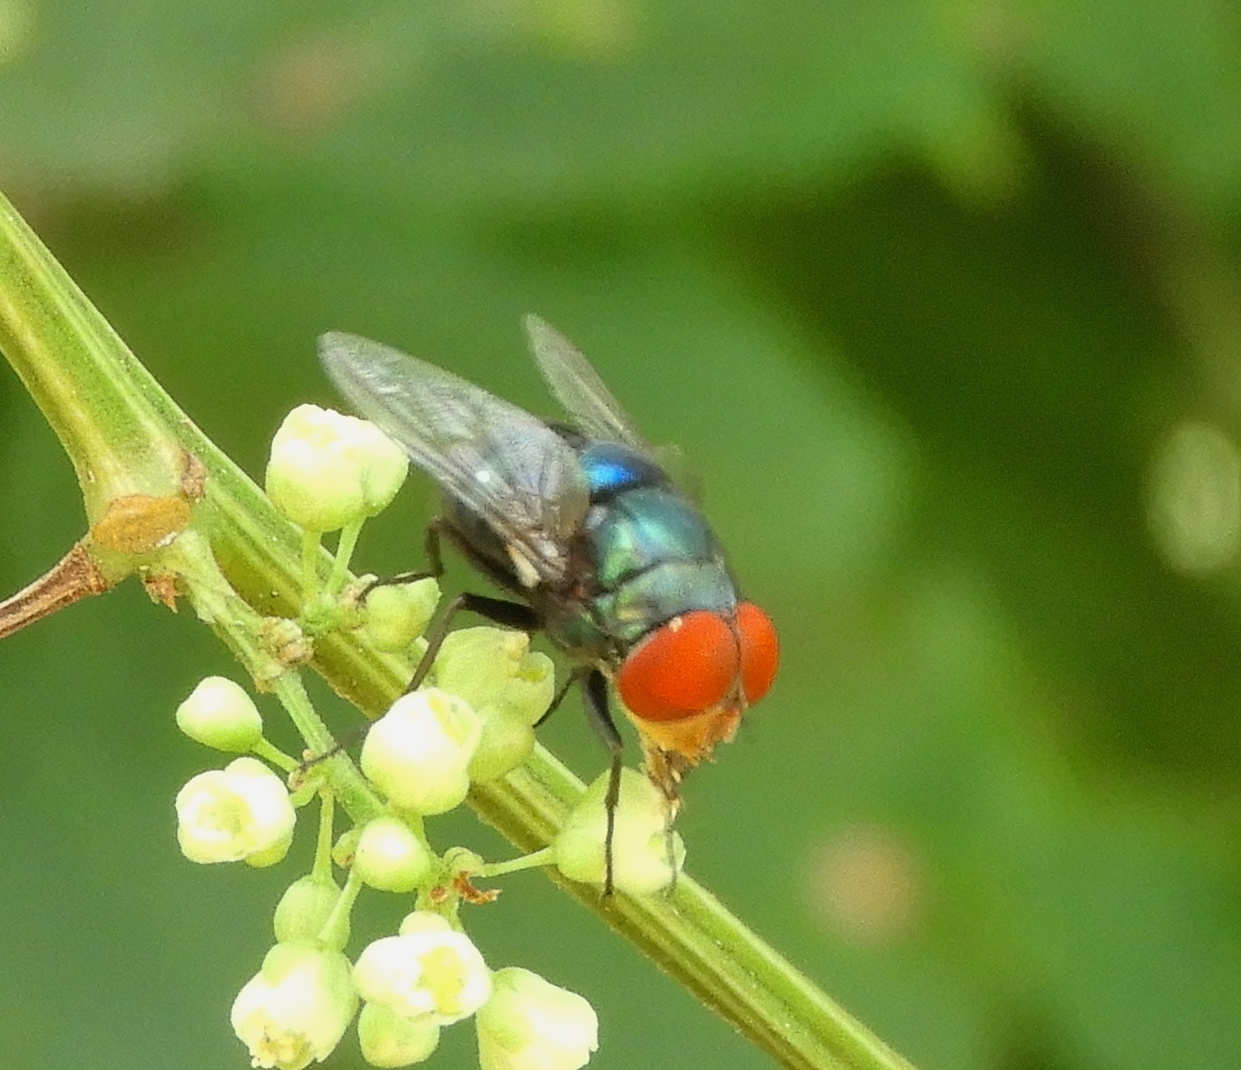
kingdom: Animalia
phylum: Arthropoda
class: Insecta
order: Diptera
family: Calliphoridae
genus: Chrysomya
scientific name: Chrysomya
